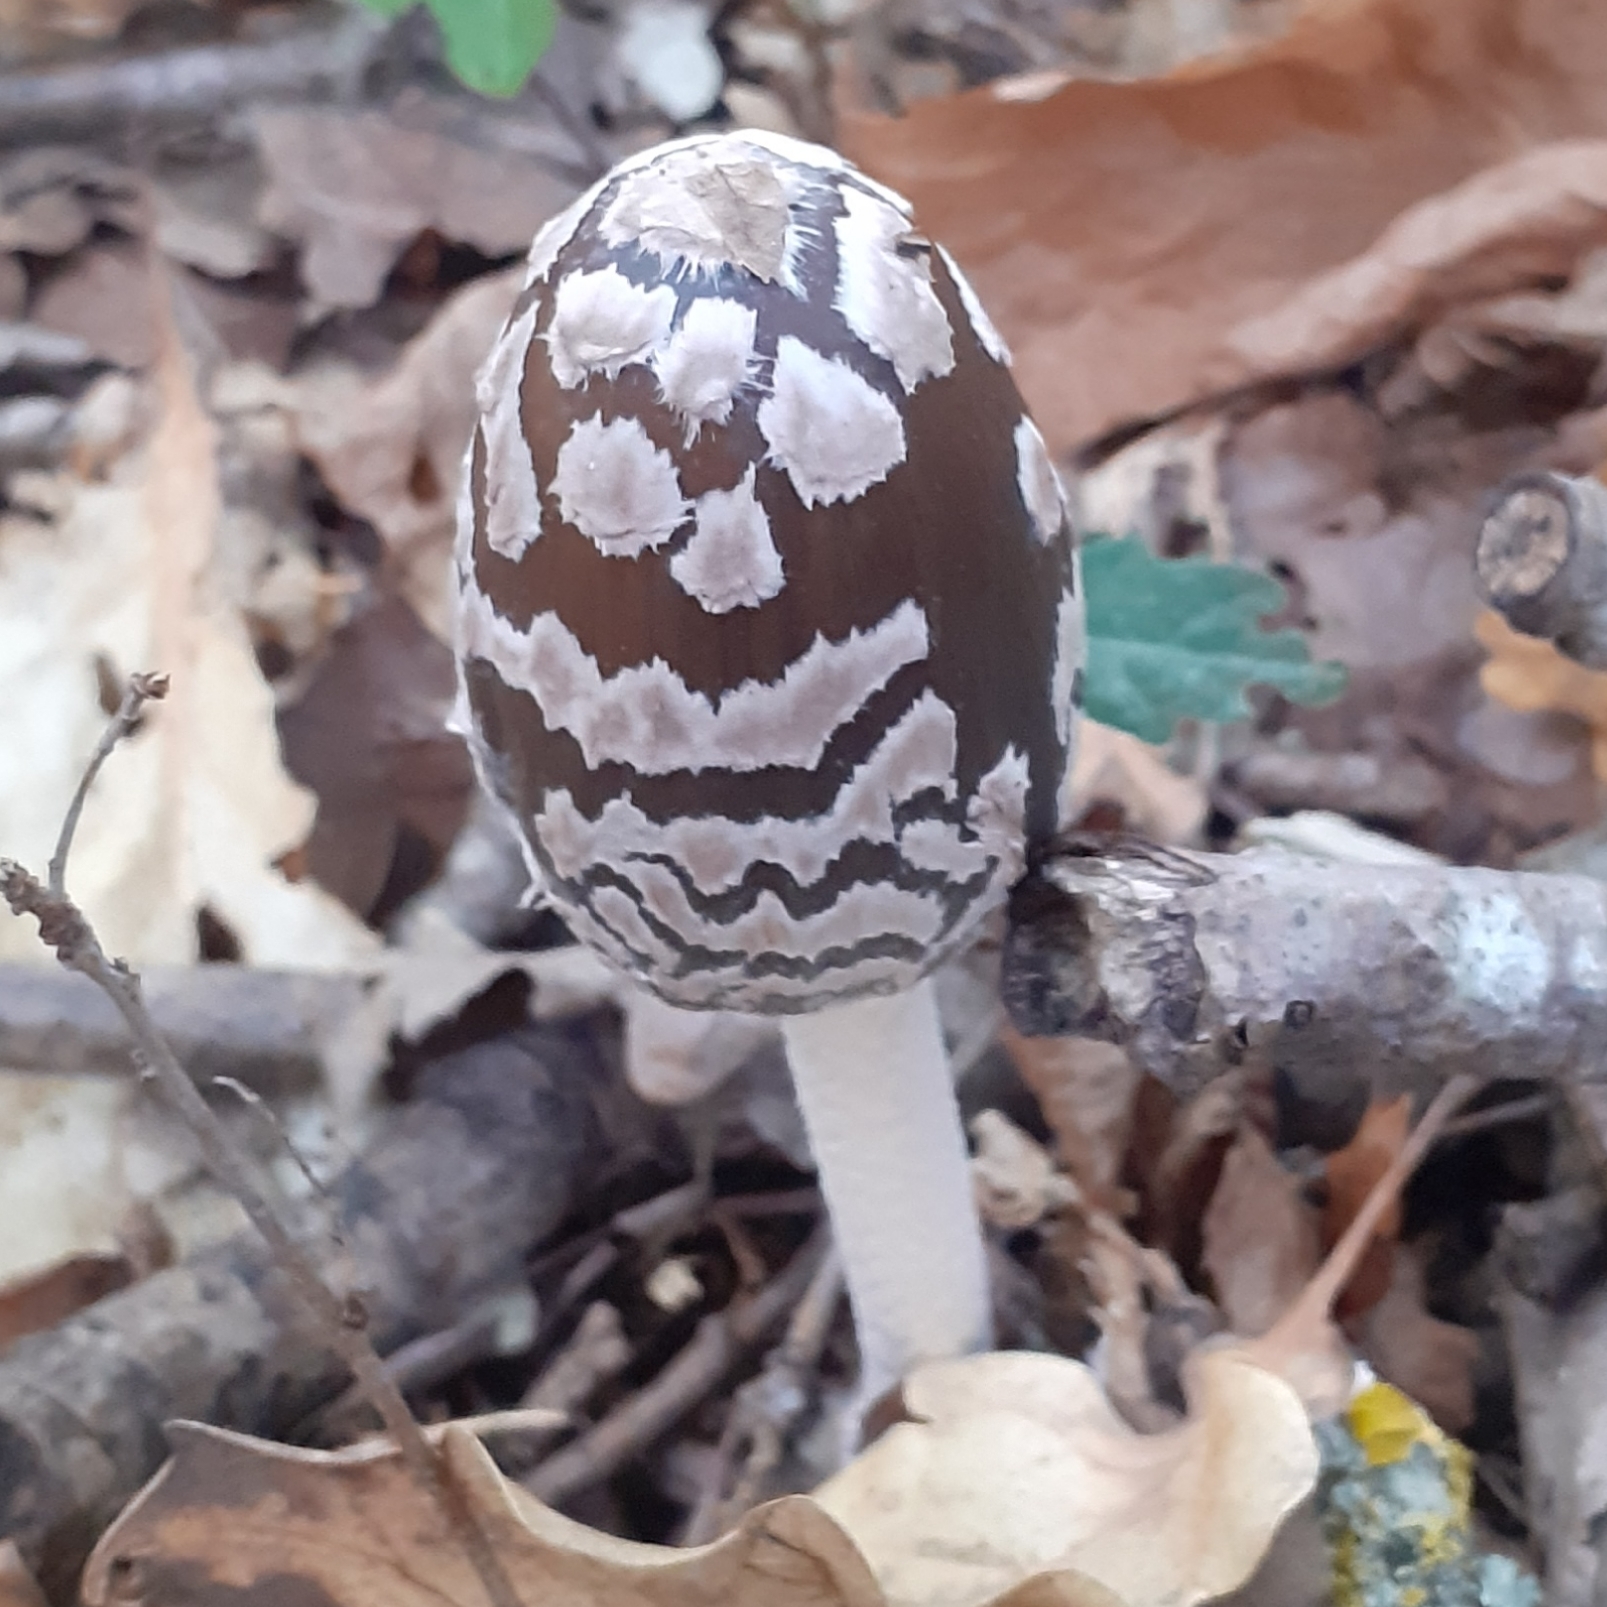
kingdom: Fungi
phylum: Basidiomycota
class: Agaricomycetes
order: Agaricales
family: Psathyrellaceae
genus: Coprinopsis
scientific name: Coprinopsis picacea
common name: Magpie inkcap
